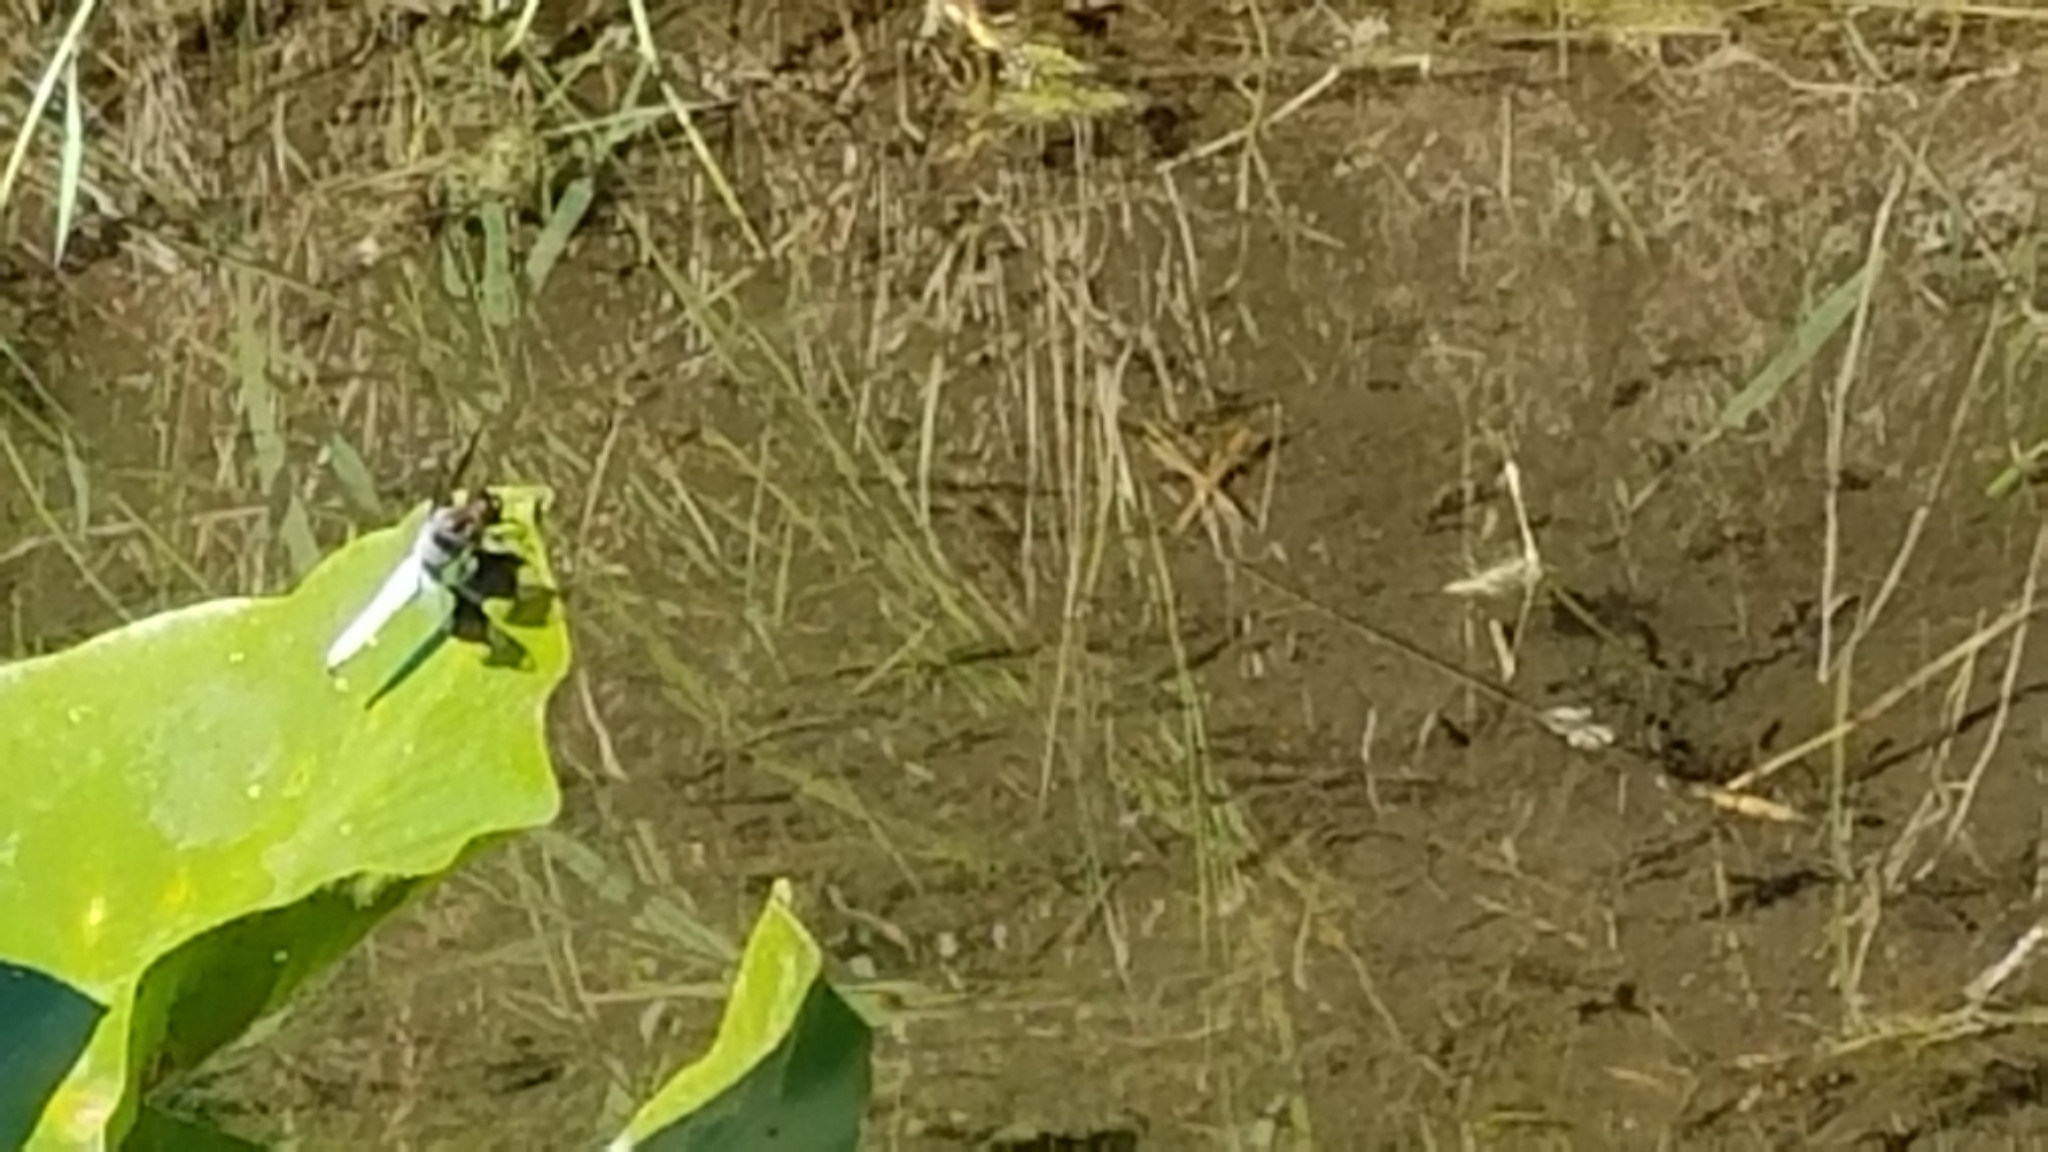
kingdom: Animalia
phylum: Arthropoda
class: Insecta
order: Odonata
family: Libellulidae
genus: Plathemis
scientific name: Plathemis lydia
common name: Common whitetail
